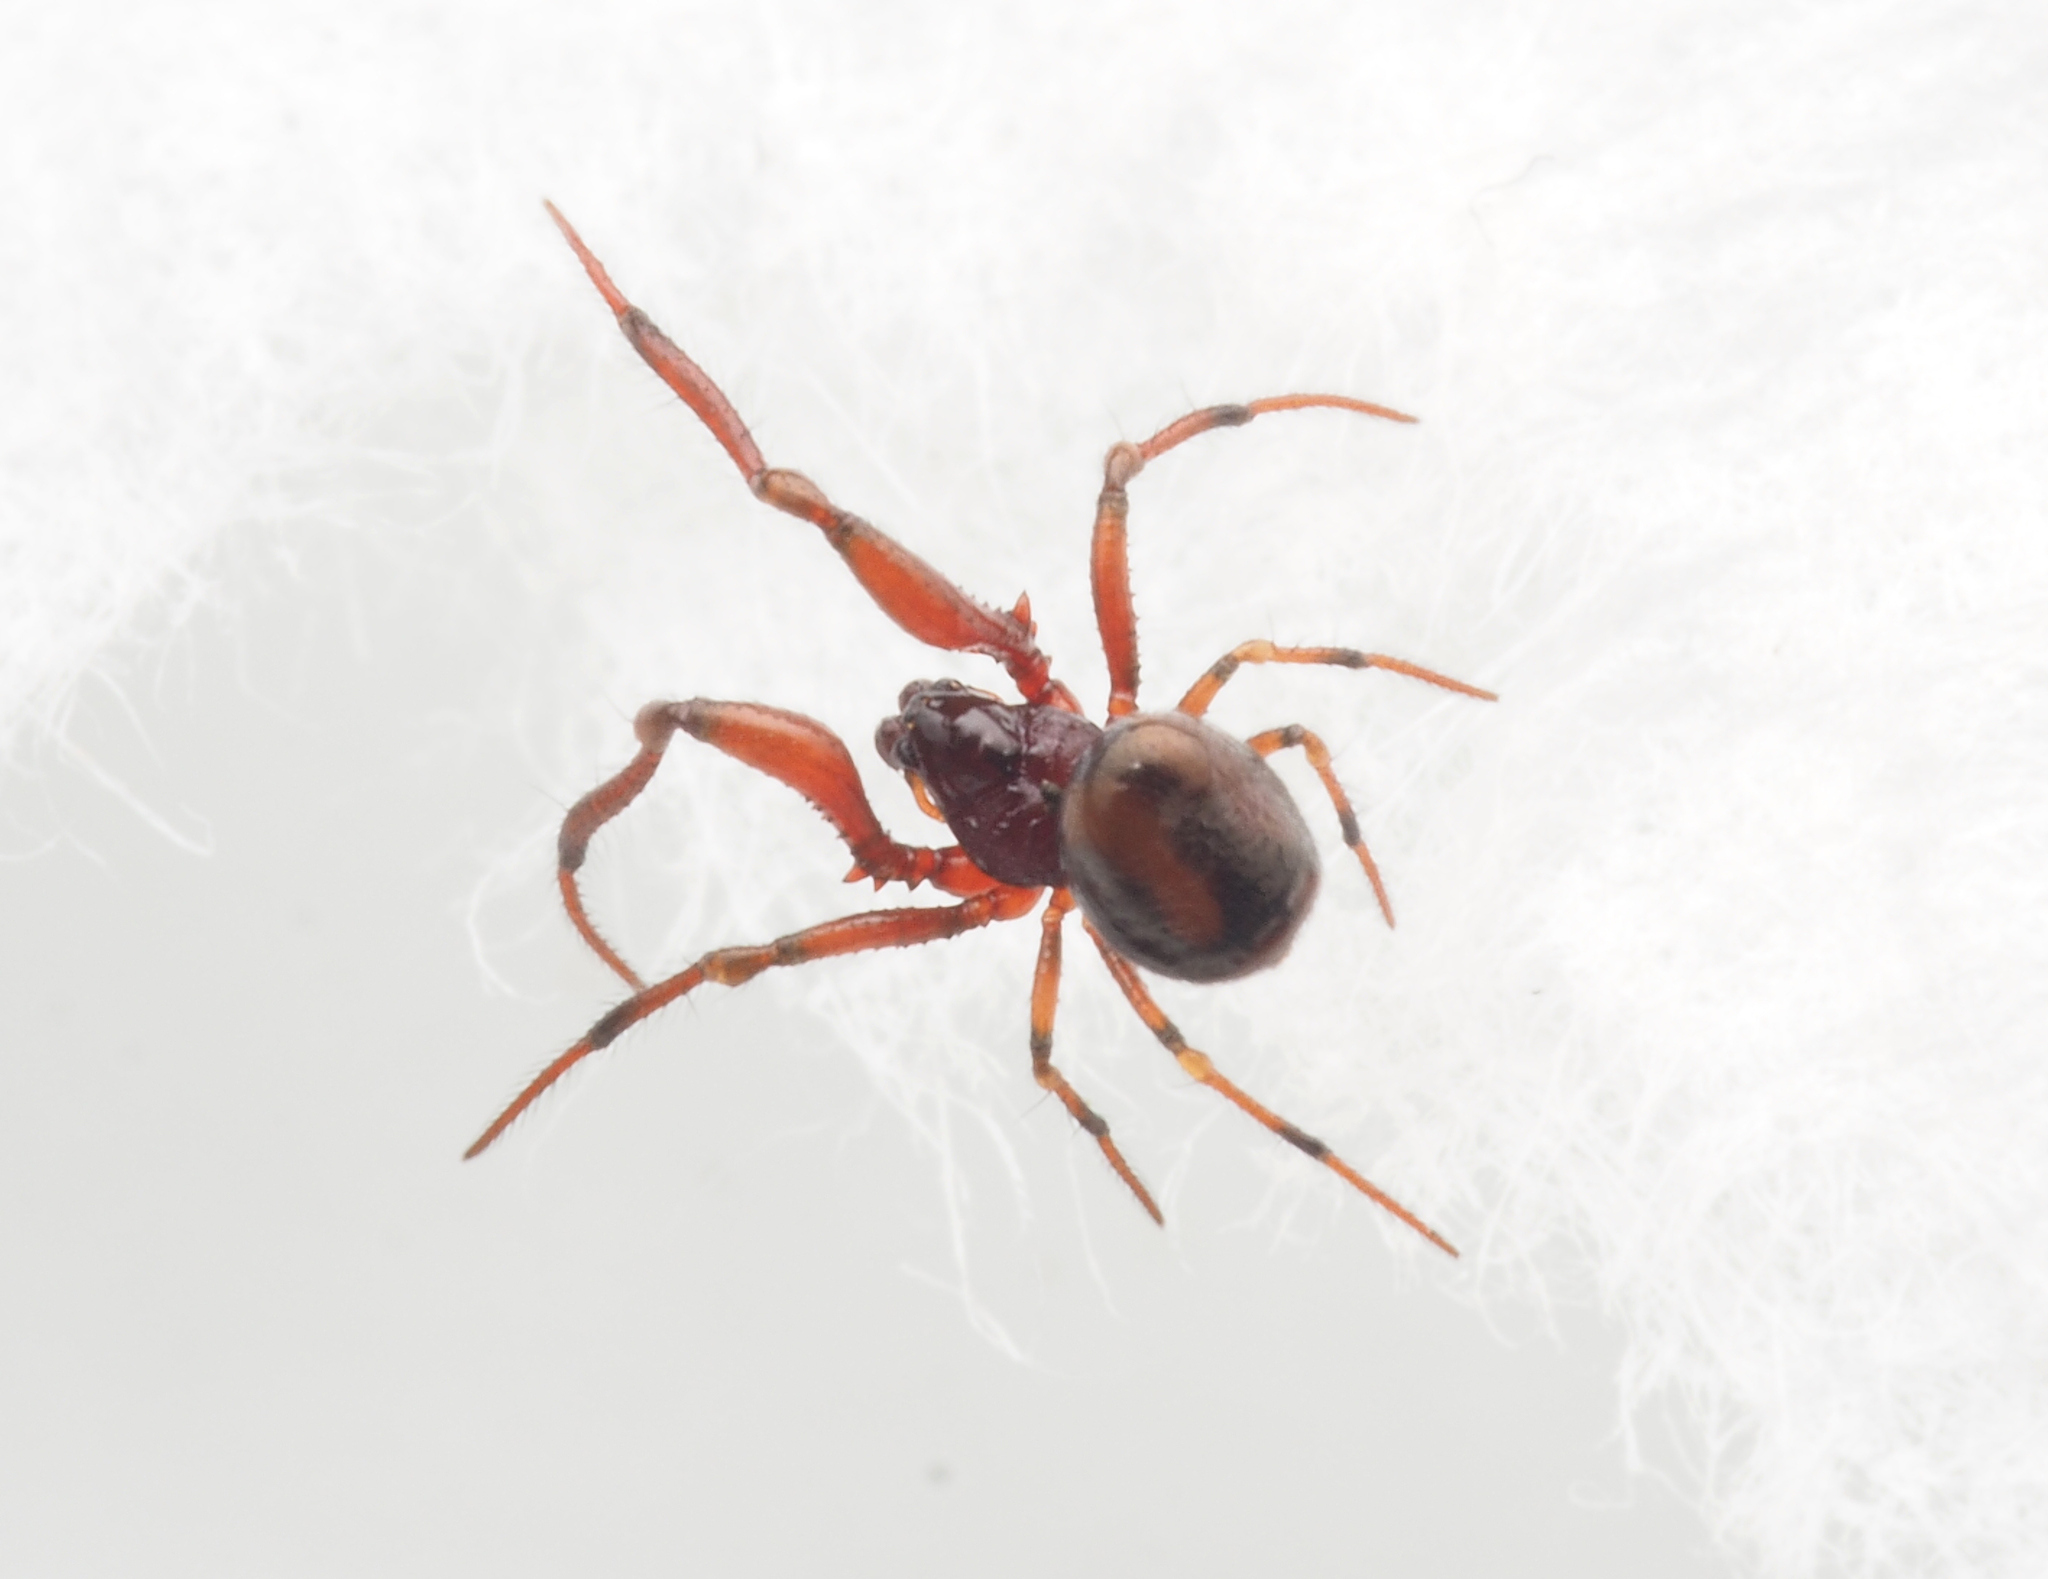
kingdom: Animalia
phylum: Arthropoda
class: Arachnida
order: Araneae
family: Anapidae
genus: Maxanapis
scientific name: Maxanapis crassifemoralis
